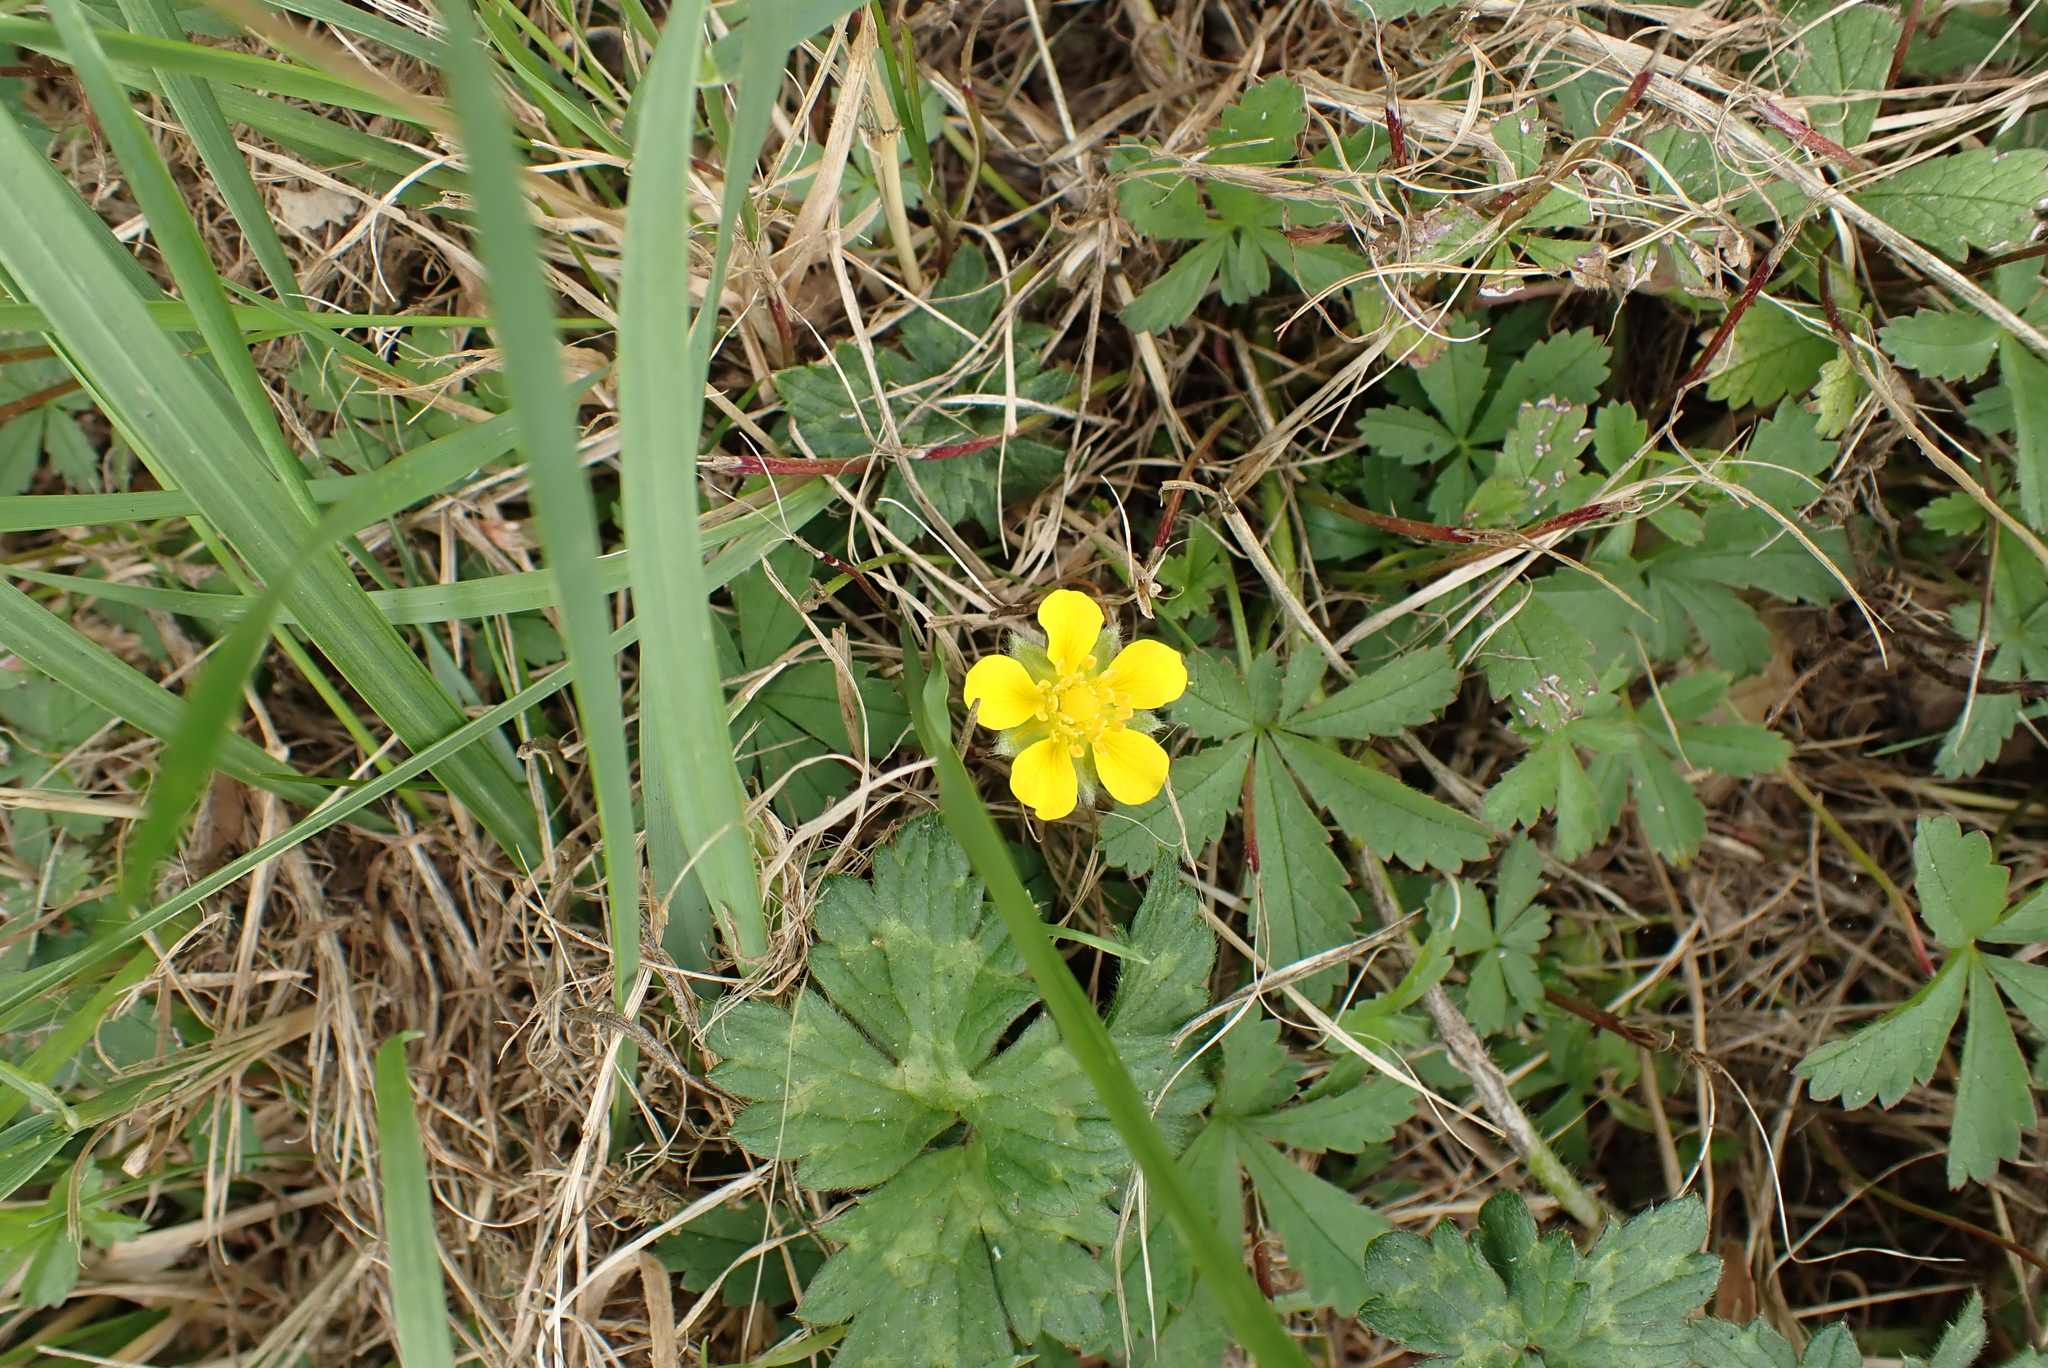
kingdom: Plantae
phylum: Tracheophyta
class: Magnoliopsida
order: Rosales
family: Rosaceae
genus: Potentilla
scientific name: Potentilla reptans
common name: Creeping cinquefoil
